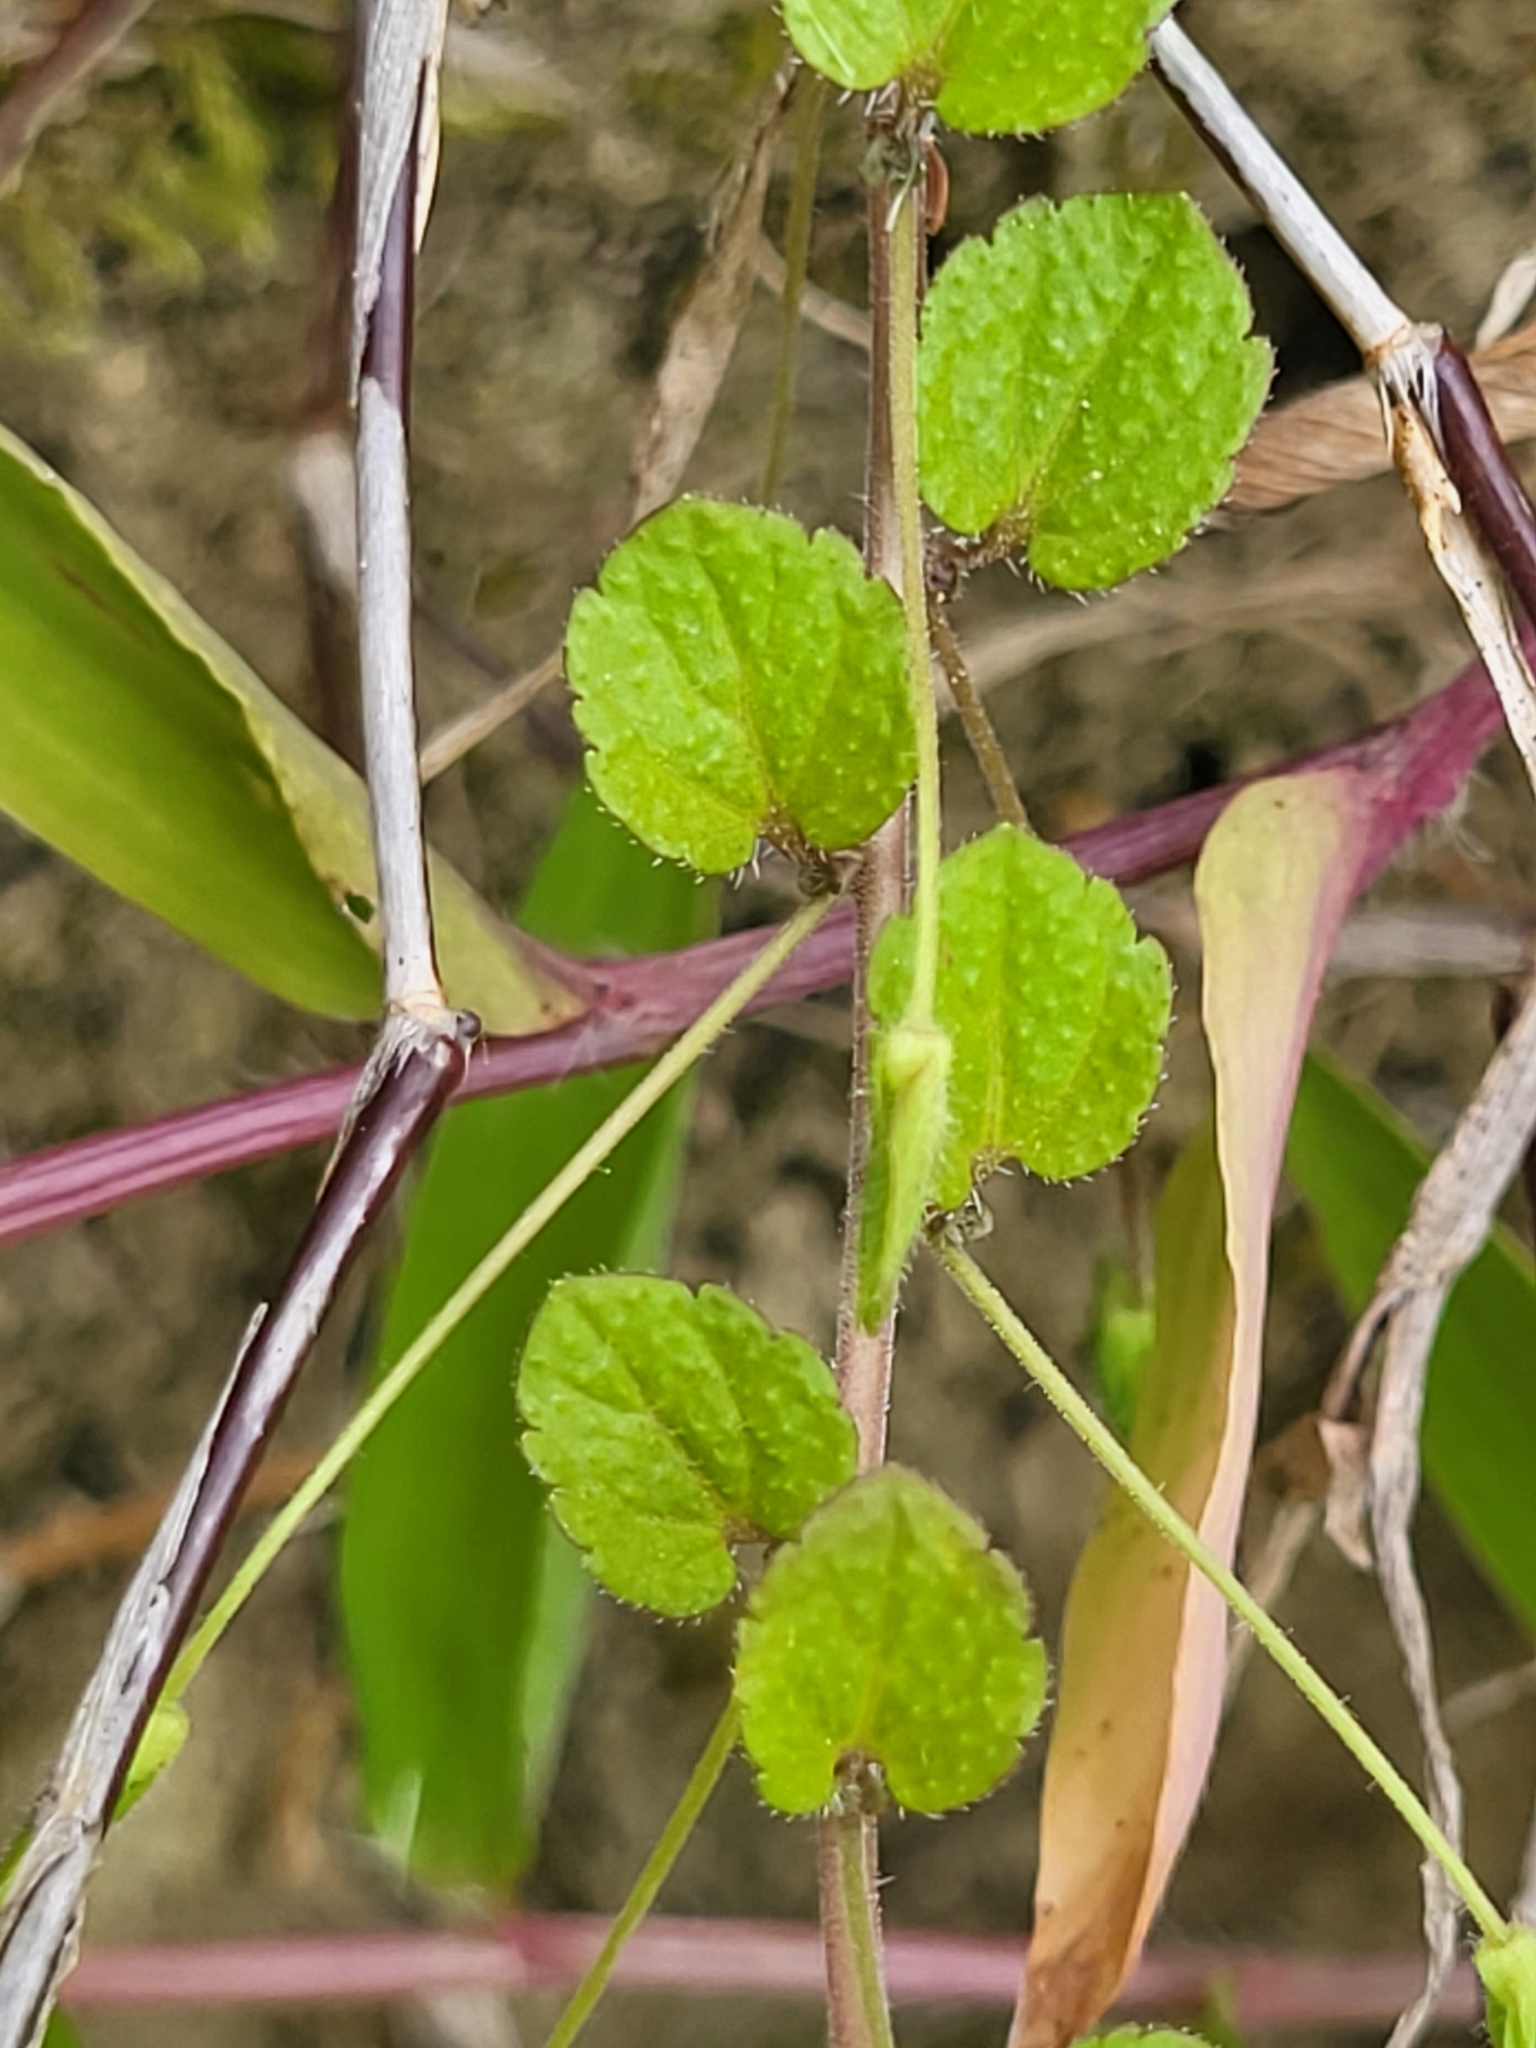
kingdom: Plantae
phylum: Tracheophyta
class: Magnoliopsida
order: Lamiales
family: Plantaginaceae
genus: Veronica
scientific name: Veronica filiformis
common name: Slender speedwell
